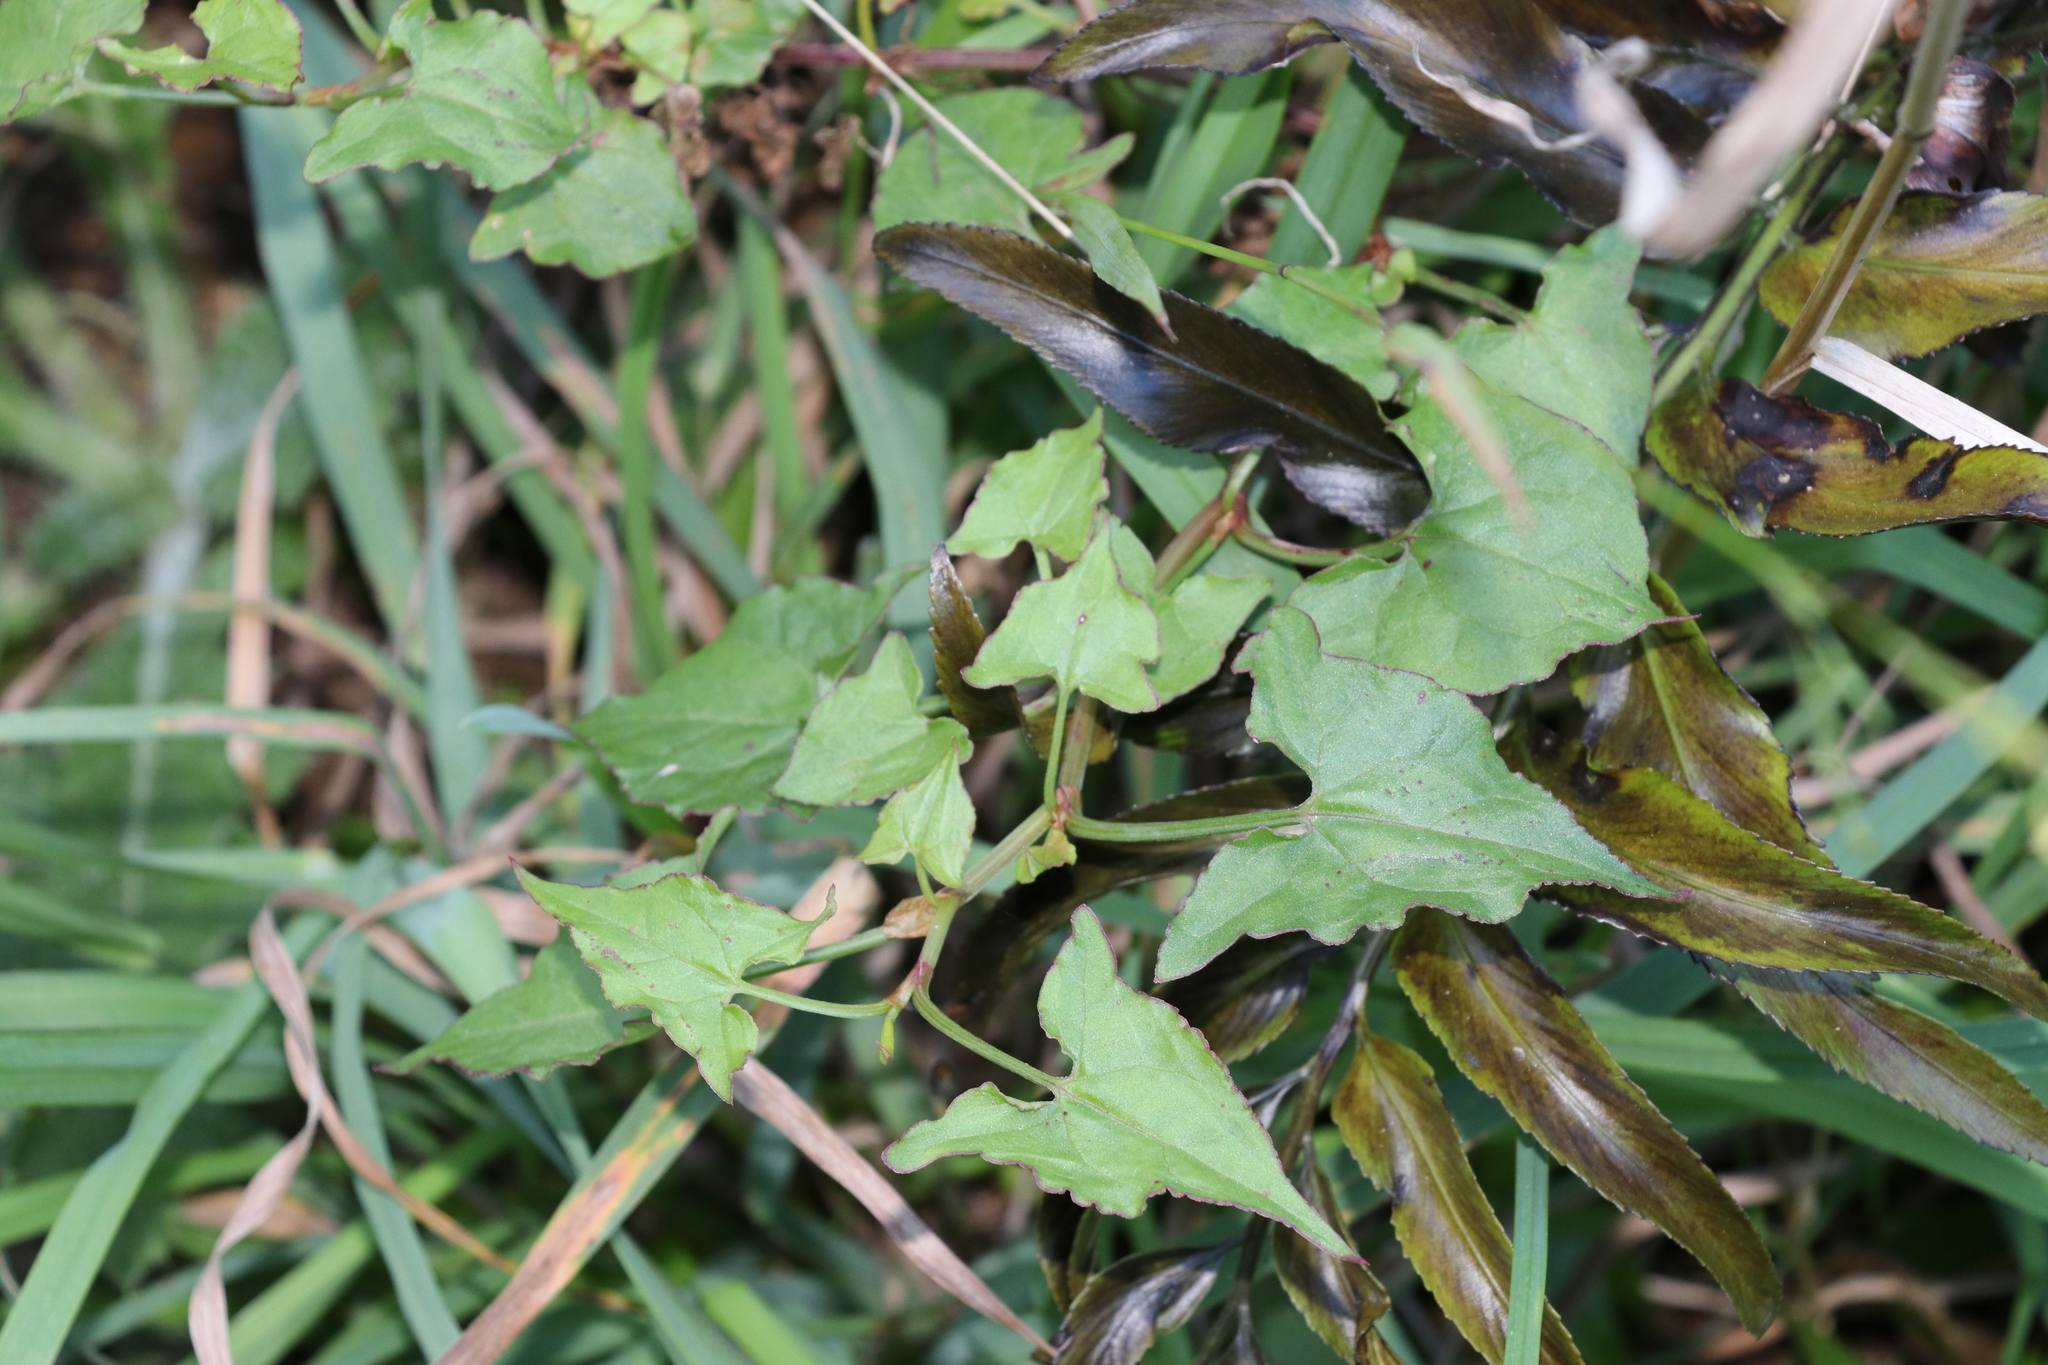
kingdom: Plantae
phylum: Tracheophyta
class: Magnoliopsida
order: Caryophyllales
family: Polygonaceae
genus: Rumex
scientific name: Rumex sagittatus
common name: Climbing dock
